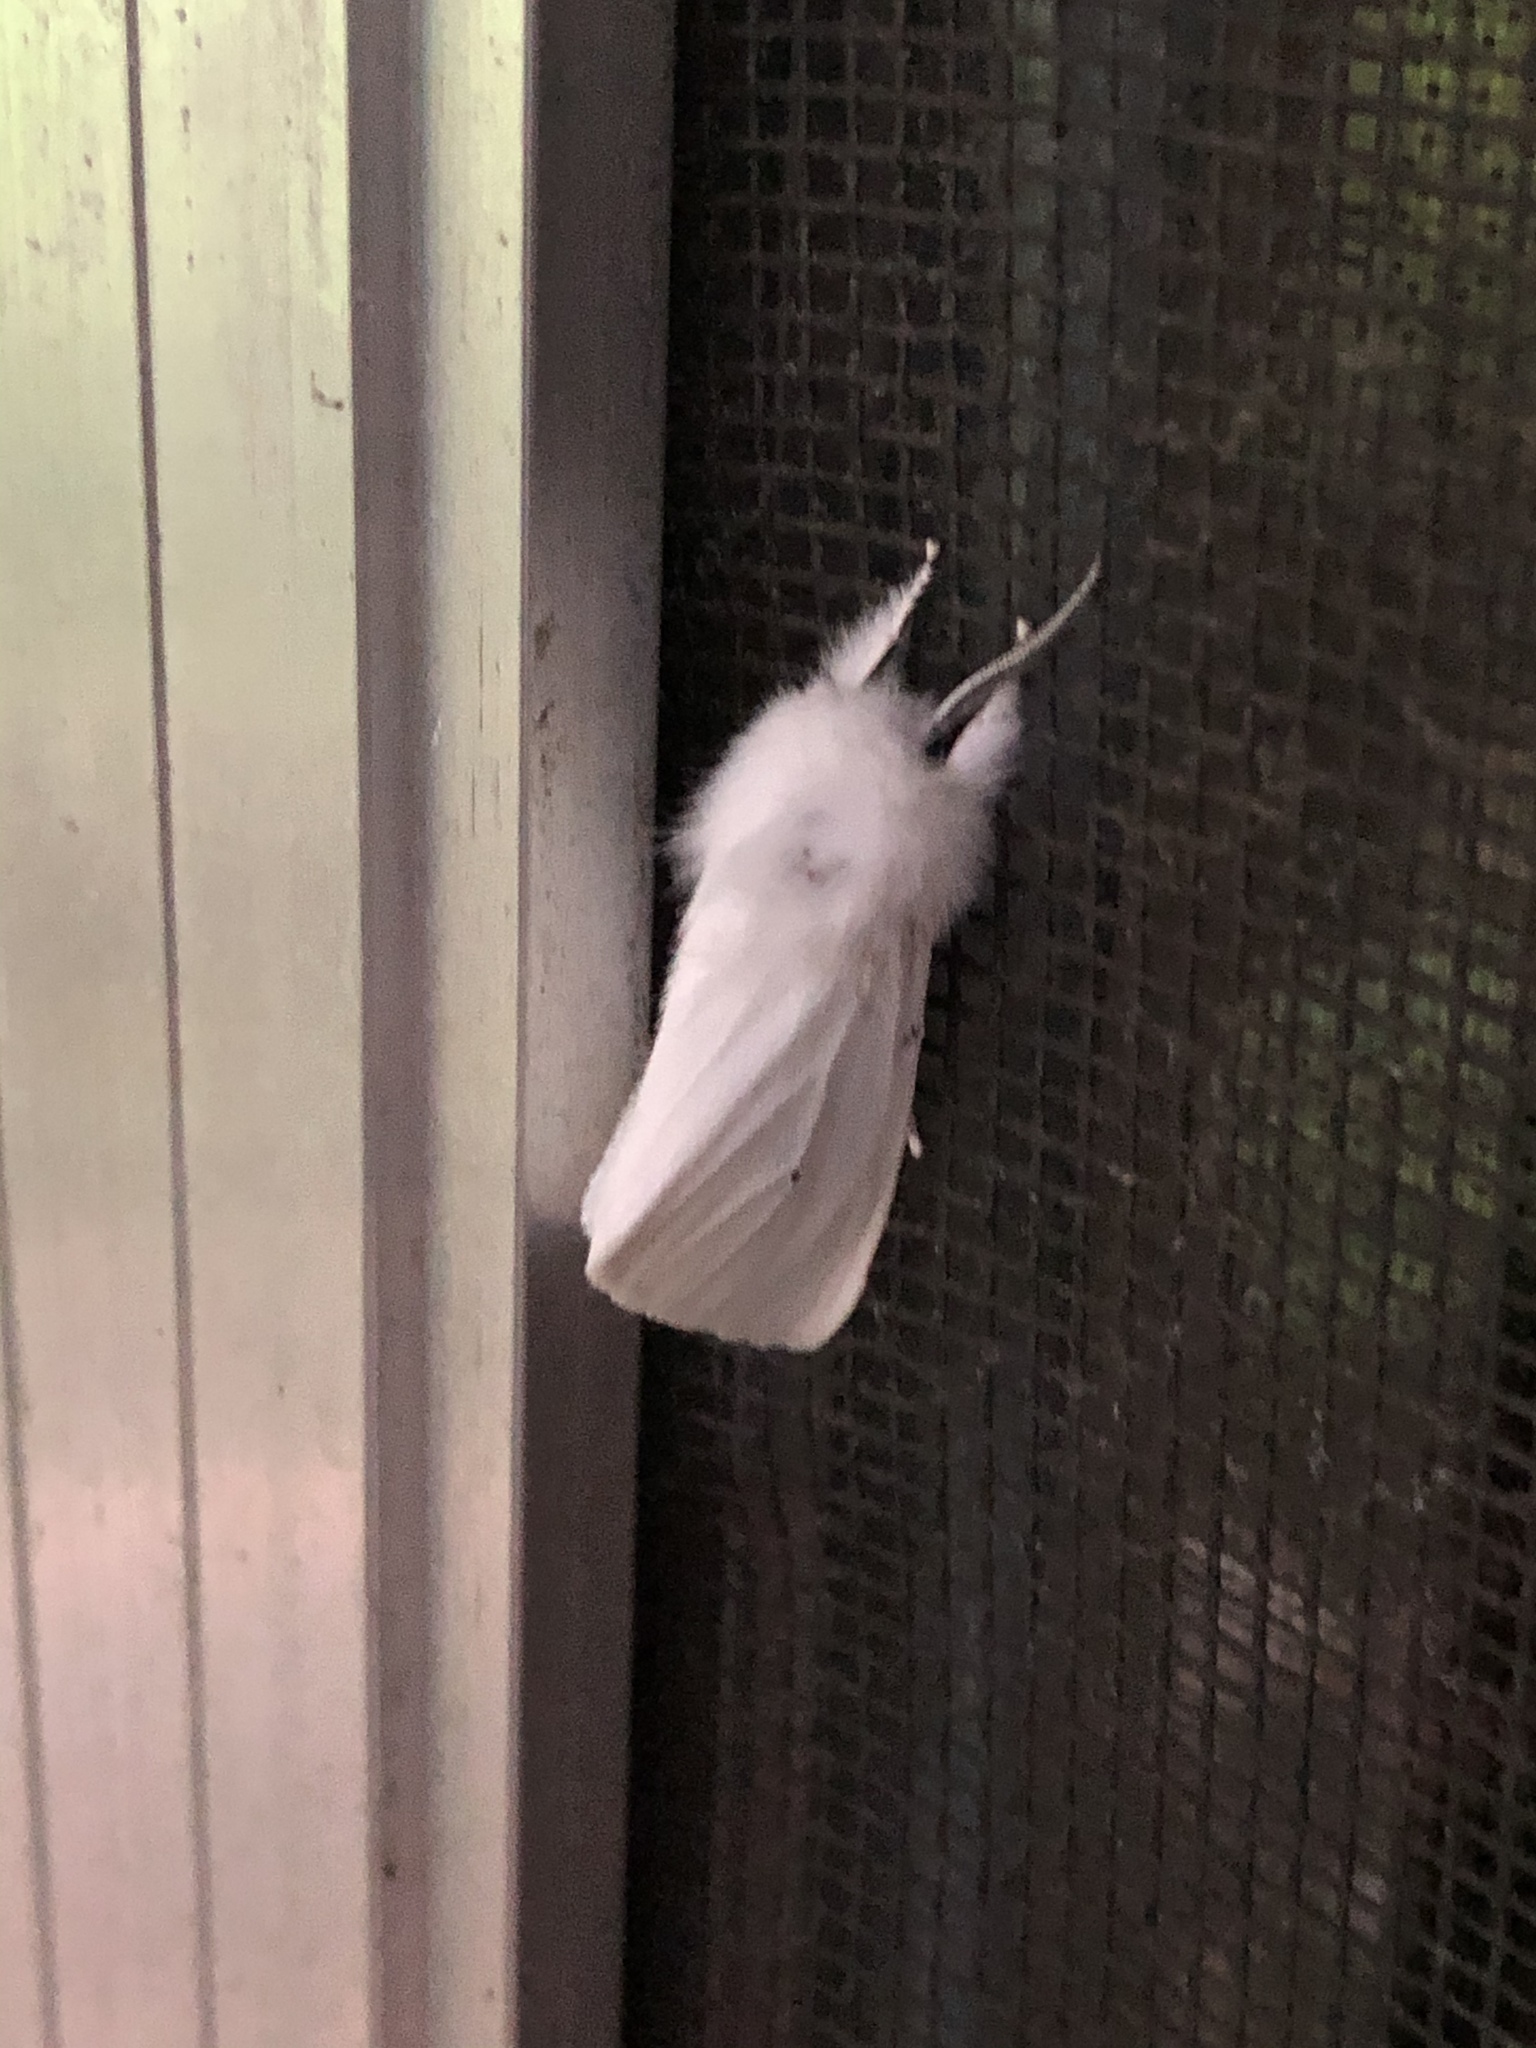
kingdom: Animalia
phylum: Arthropoda
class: Insecta
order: Lepidoptera
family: Erebidae
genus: Spilosoma
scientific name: Spilosoma virginica
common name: Virginia tiger moth
